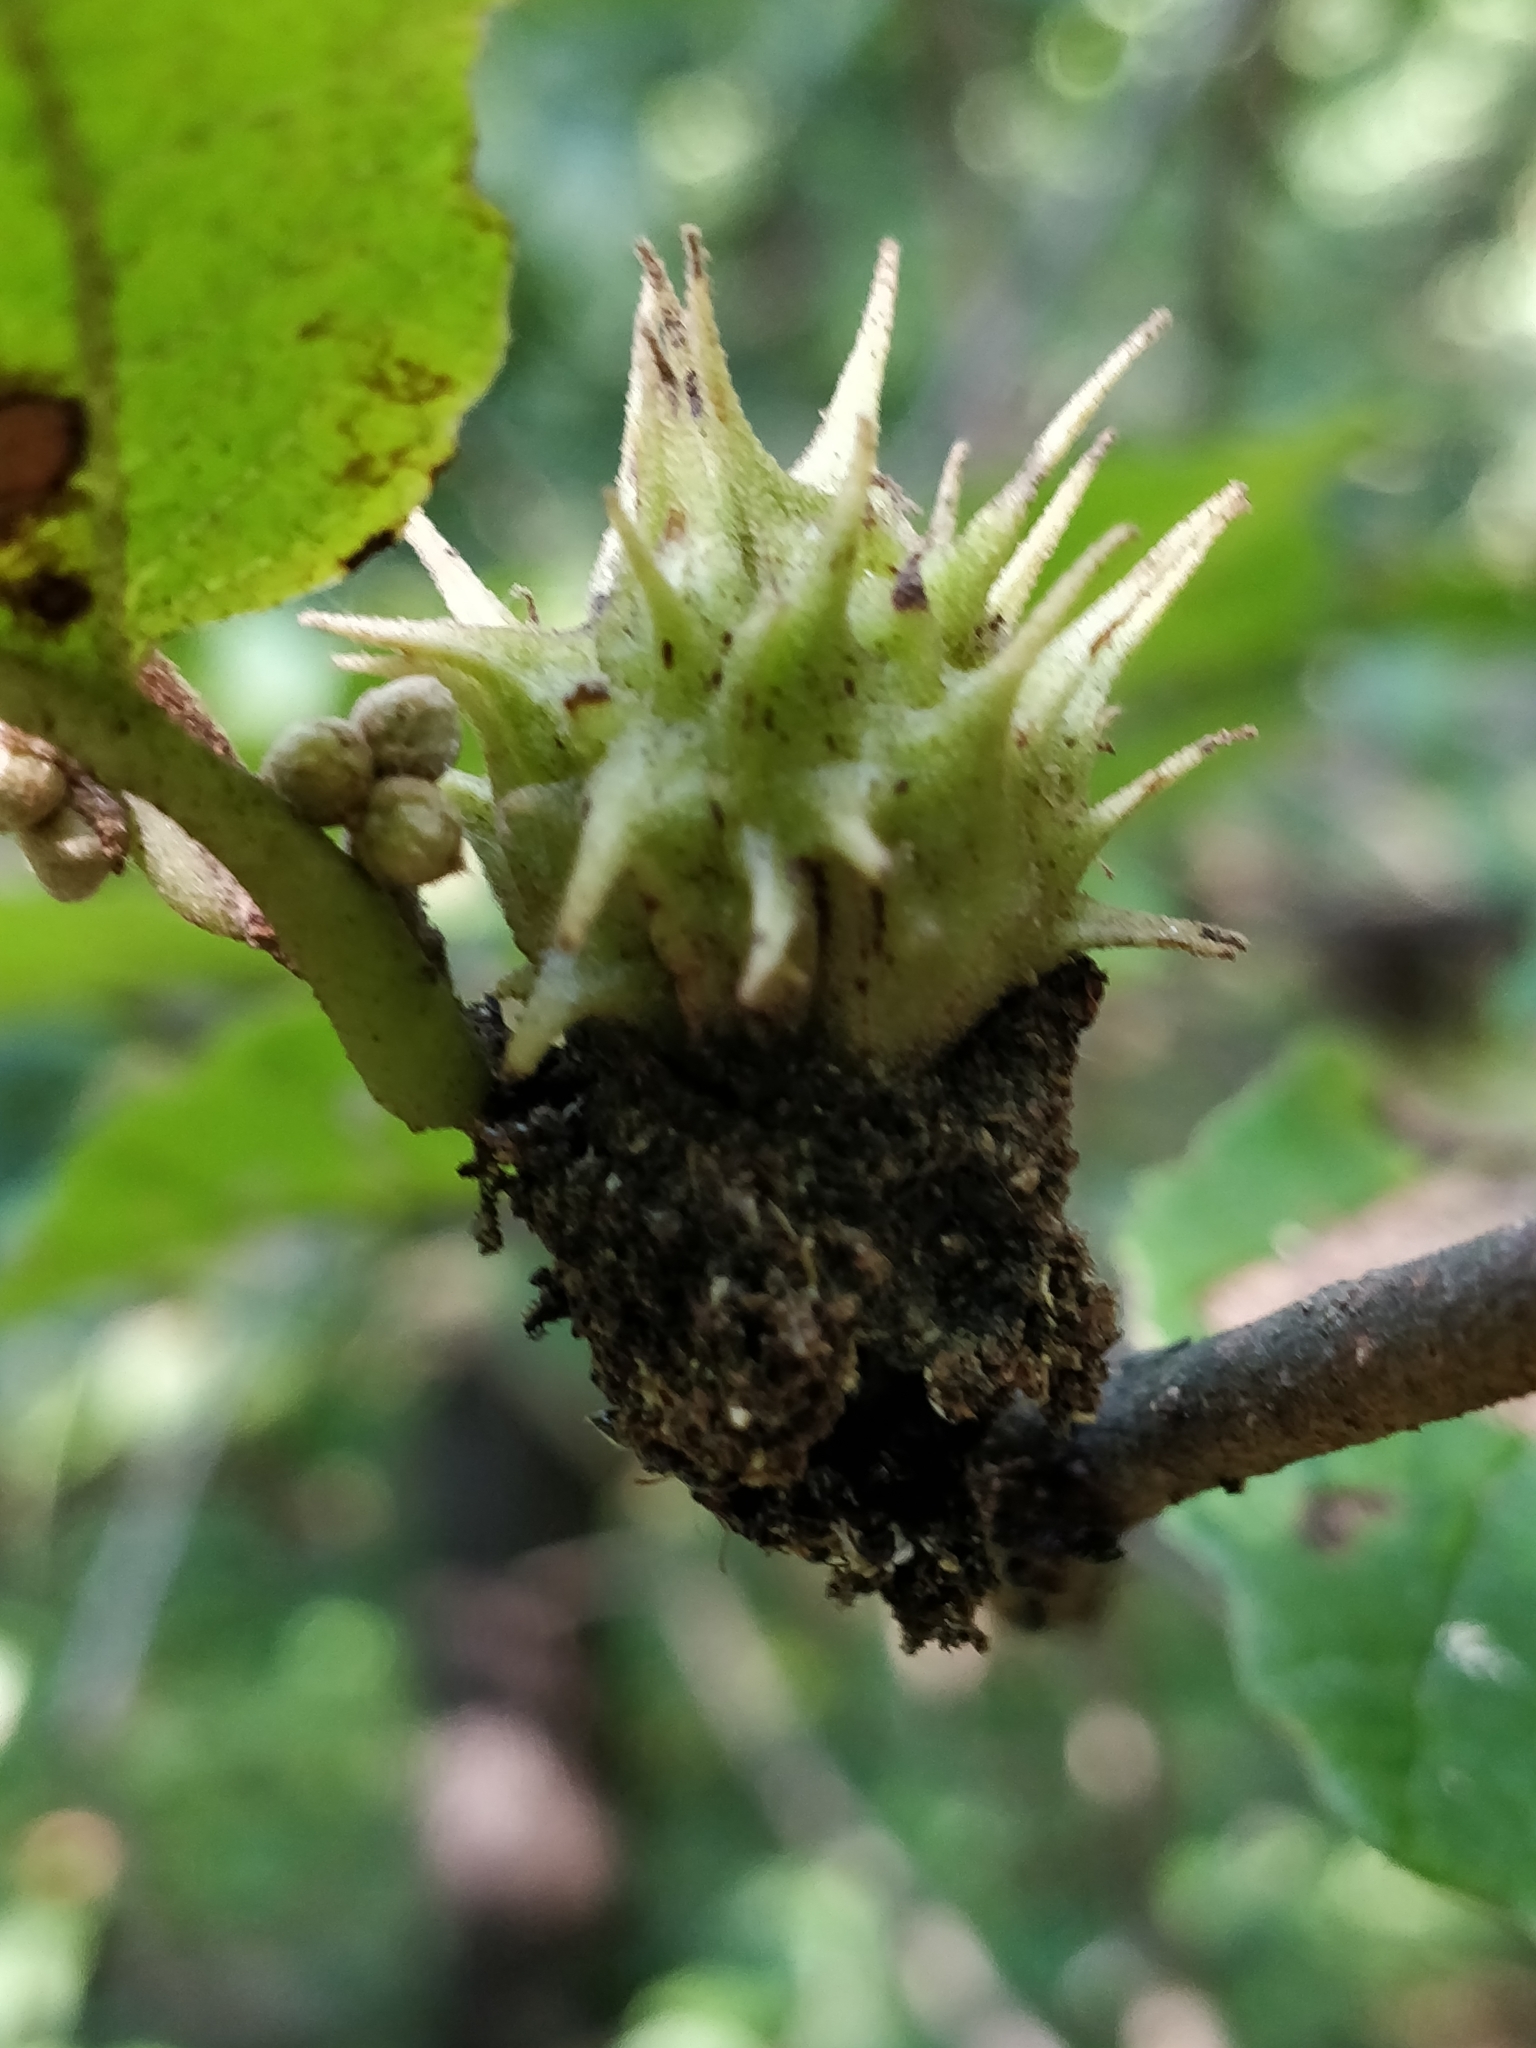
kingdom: Animalia
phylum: Arthropoda
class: Insecta
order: Hemiptera
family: Aphididae
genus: Hamamelistes
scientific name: Hamamelistes spinosus
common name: Witch hazel gall aphid
